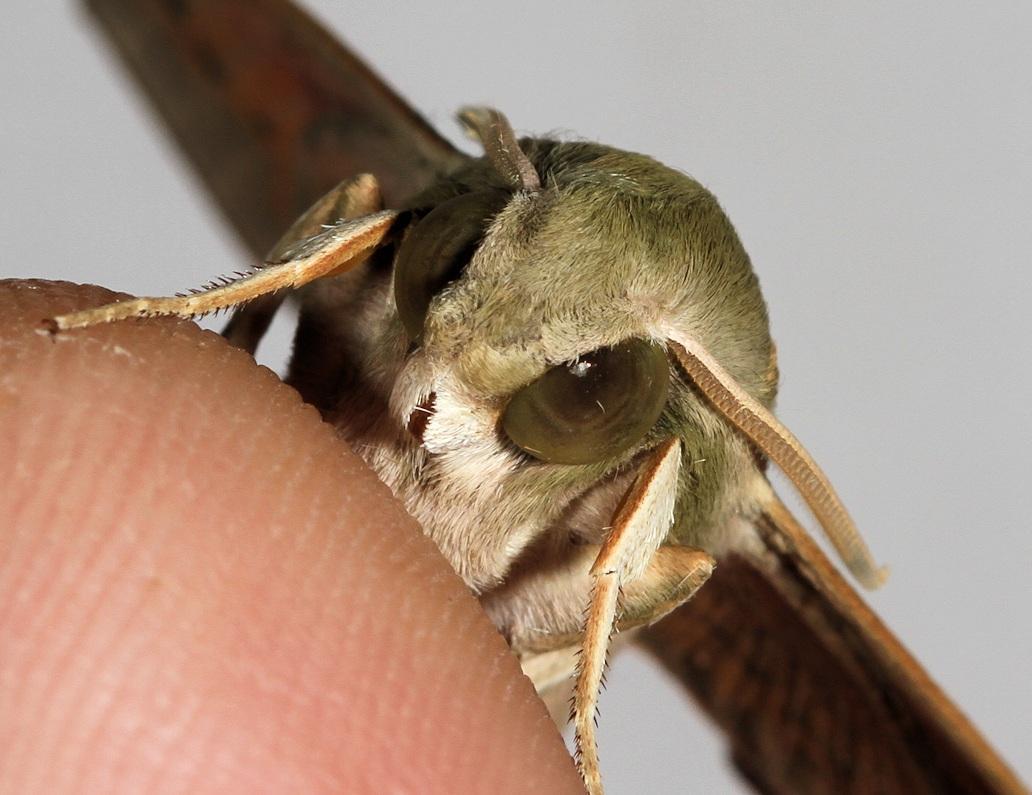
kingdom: Animalia
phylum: Arthropoda
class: Insecta
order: Lepidoptera
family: Sphingidae
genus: Hippotion
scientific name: Hippotion roseipennis
